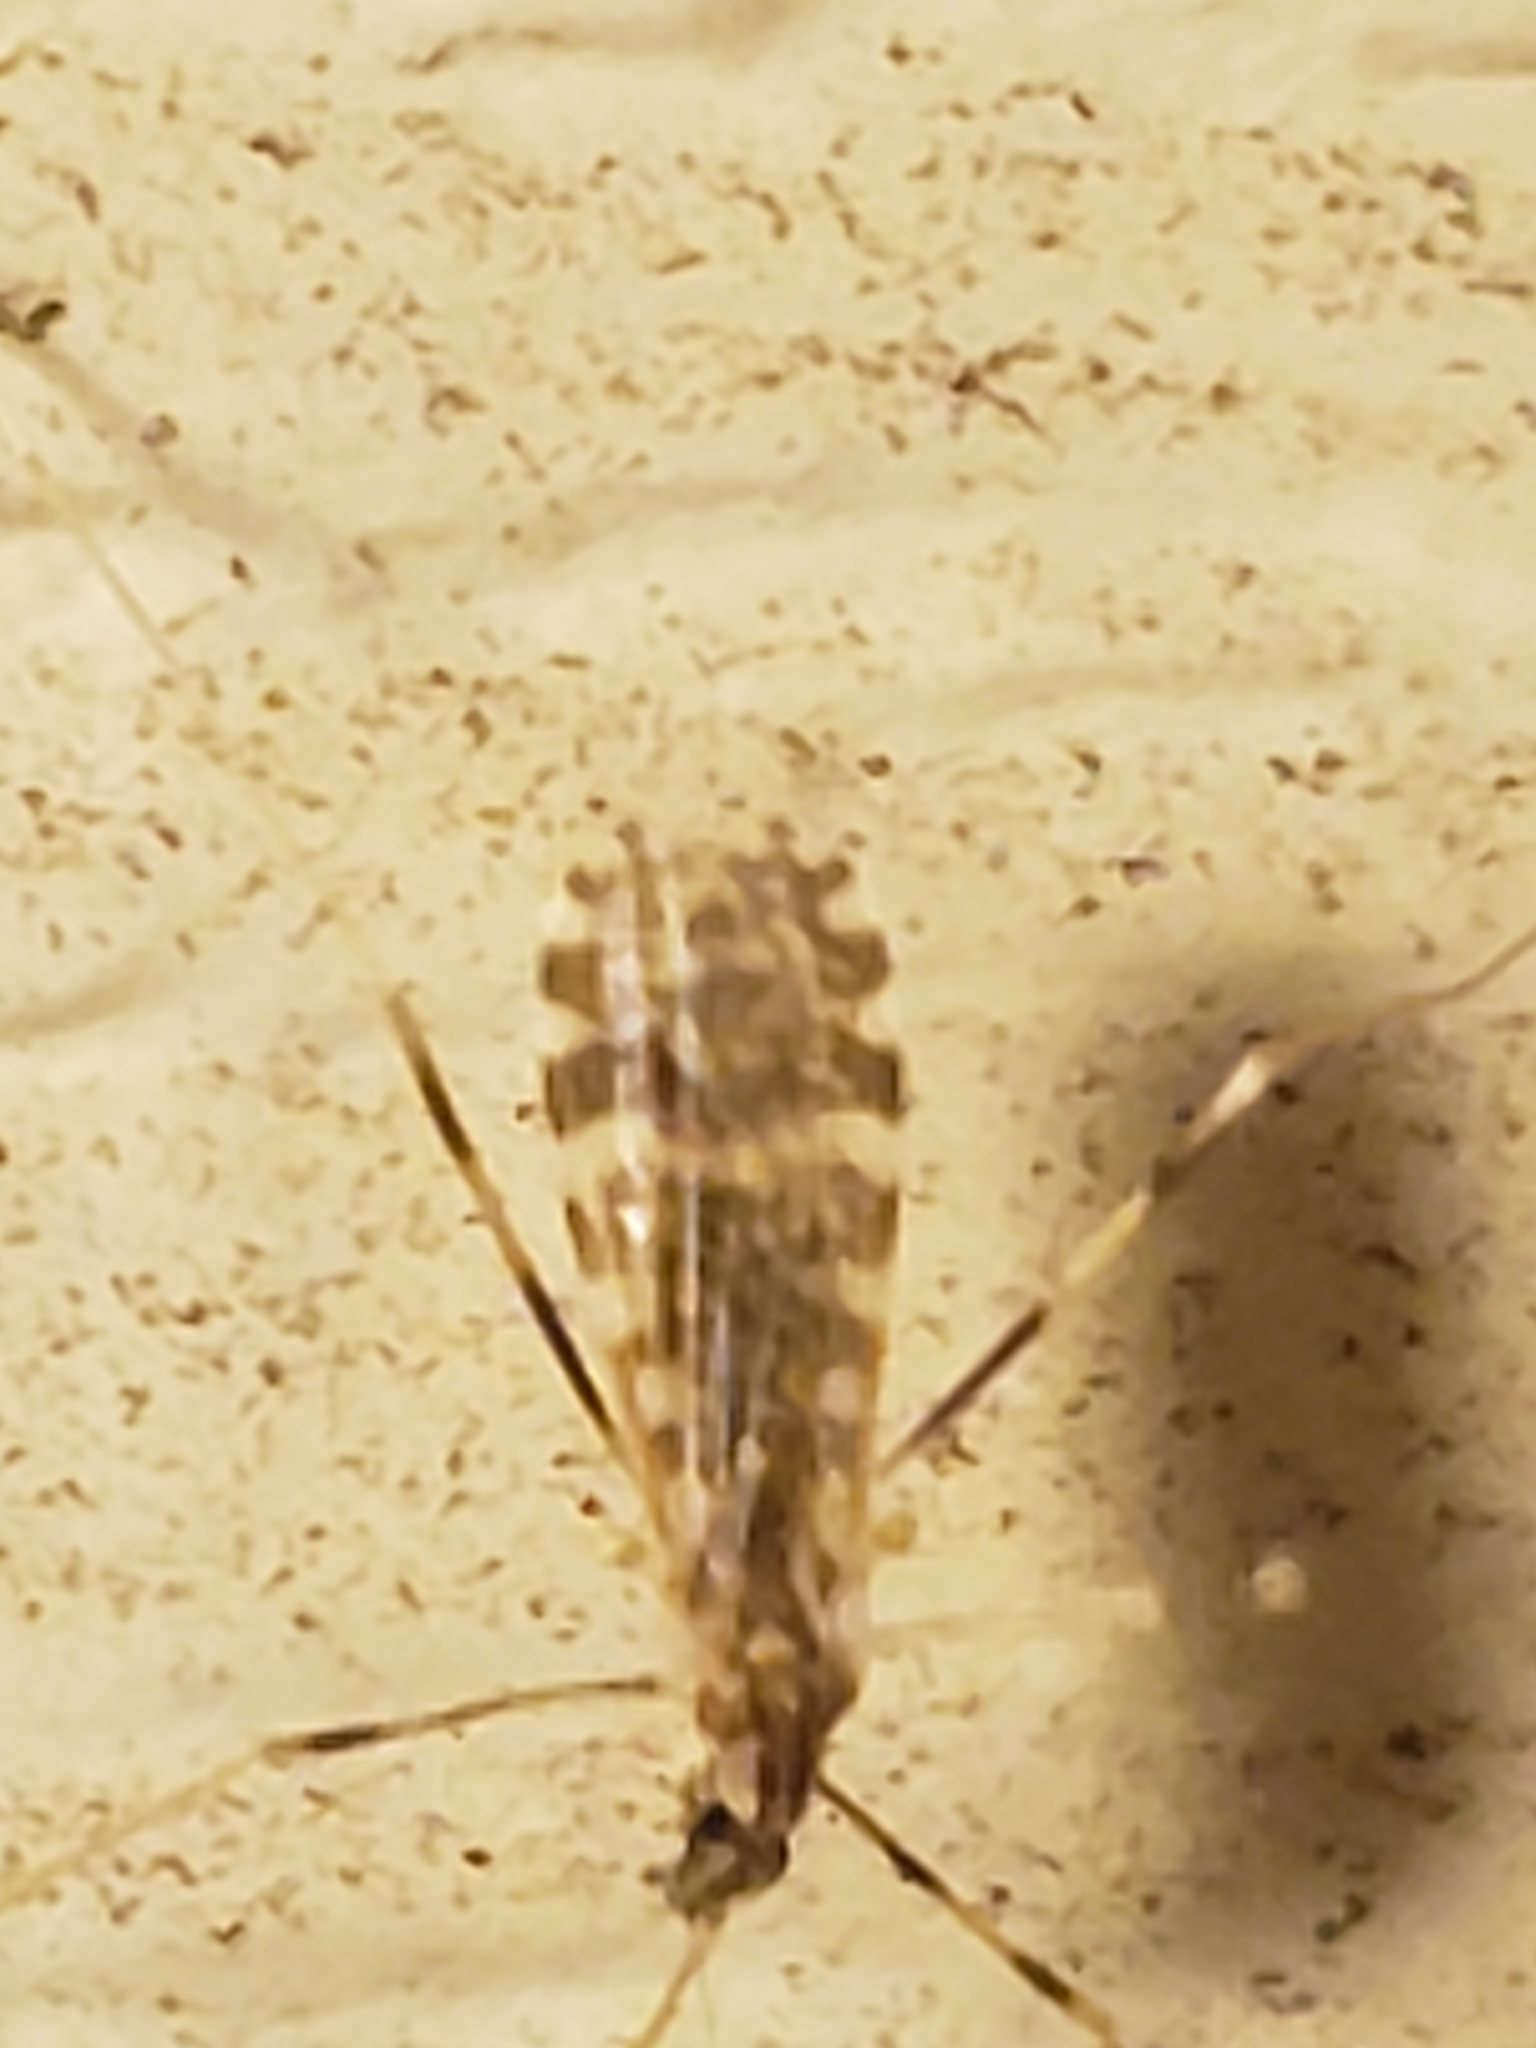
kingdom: Animalia
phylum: Arthropoda
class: Insecta
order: Diptera
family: Limoniidae
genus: Erioptera
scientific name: Erioptera caliptera
